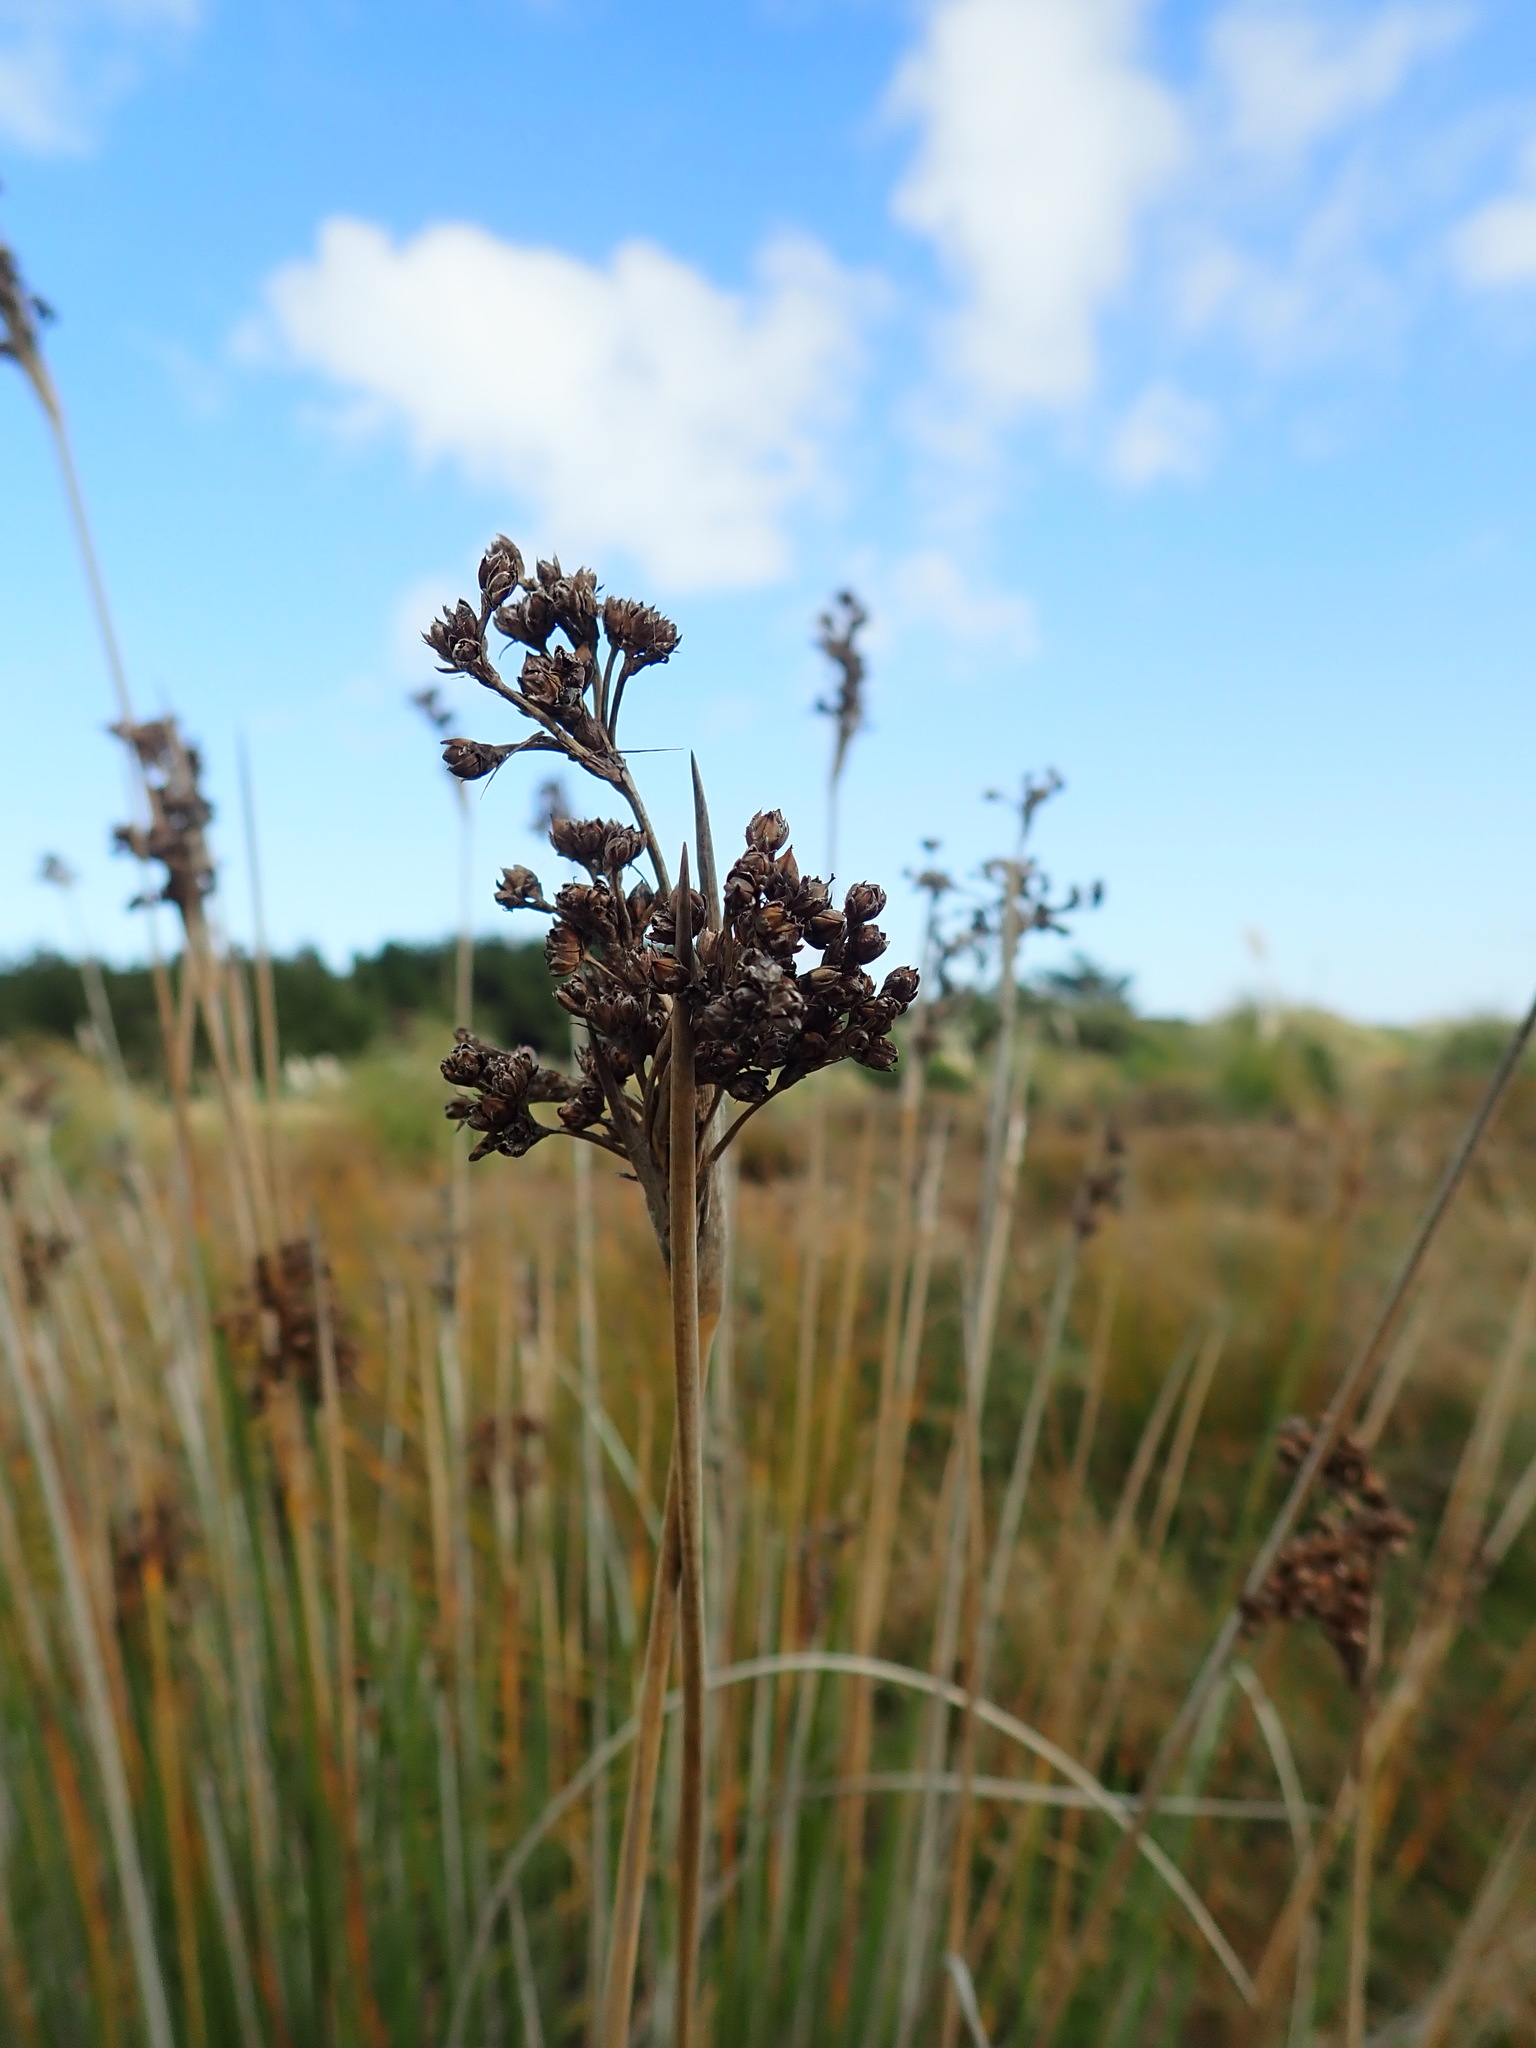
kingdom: Plantae
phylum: Tracheophyta
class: Liliopsida
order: Poales
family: Juncaceae
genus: Juncus
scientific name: Juncus acutus
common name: Sharp rush
